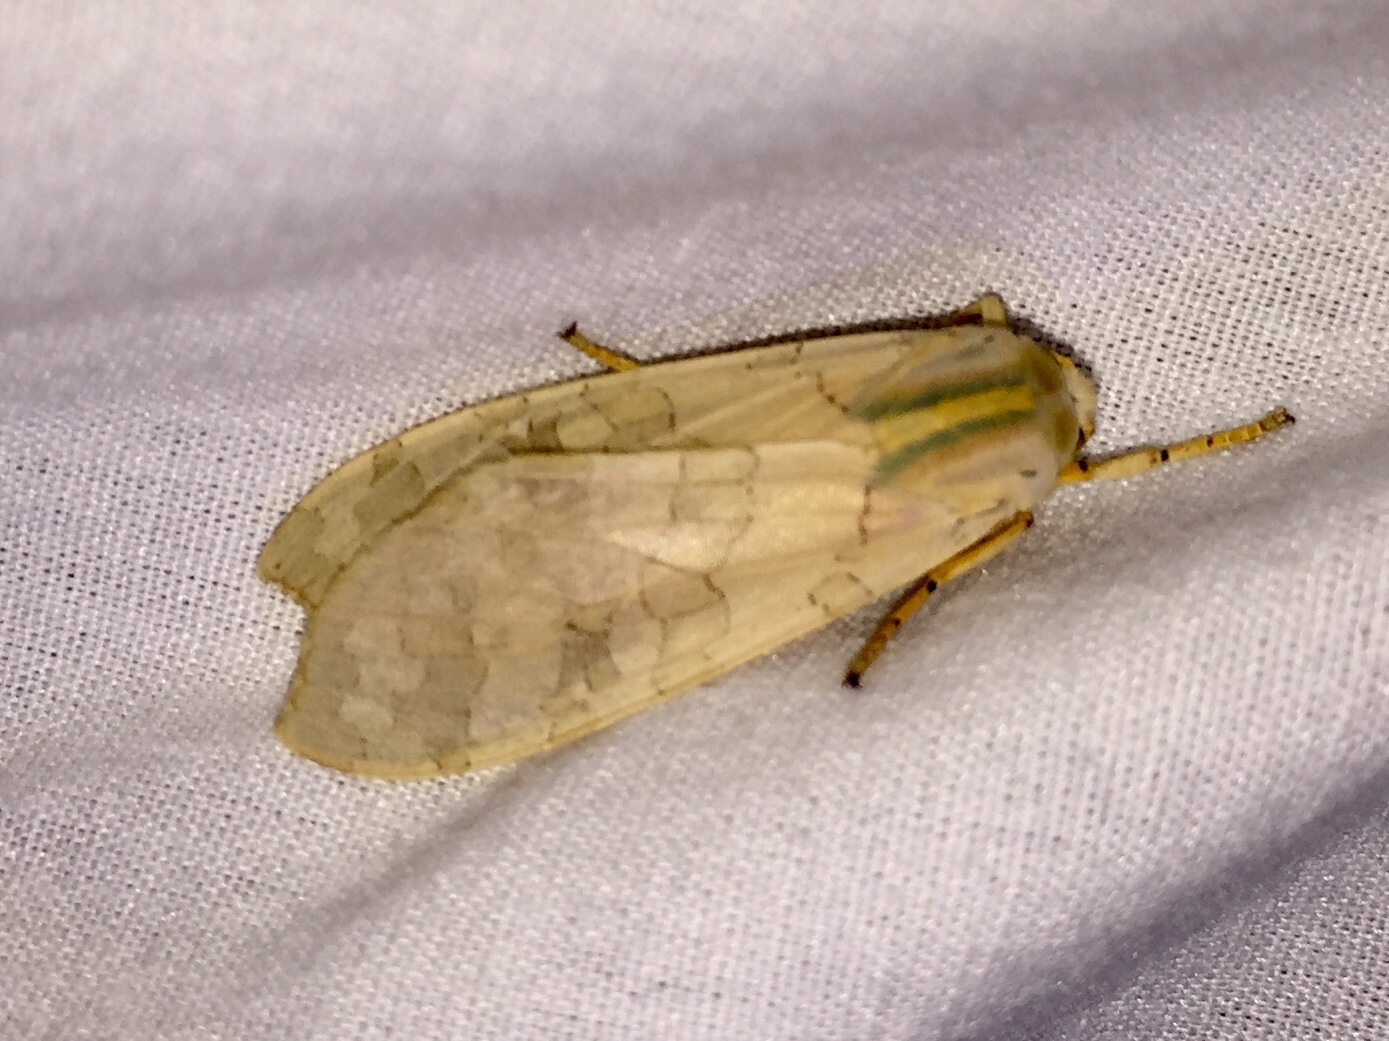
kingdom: Animalia
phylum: Arthropoda
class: Insecta
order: Lepidoptera
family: Erebidae
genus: Halysidota
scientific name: Halysidota
